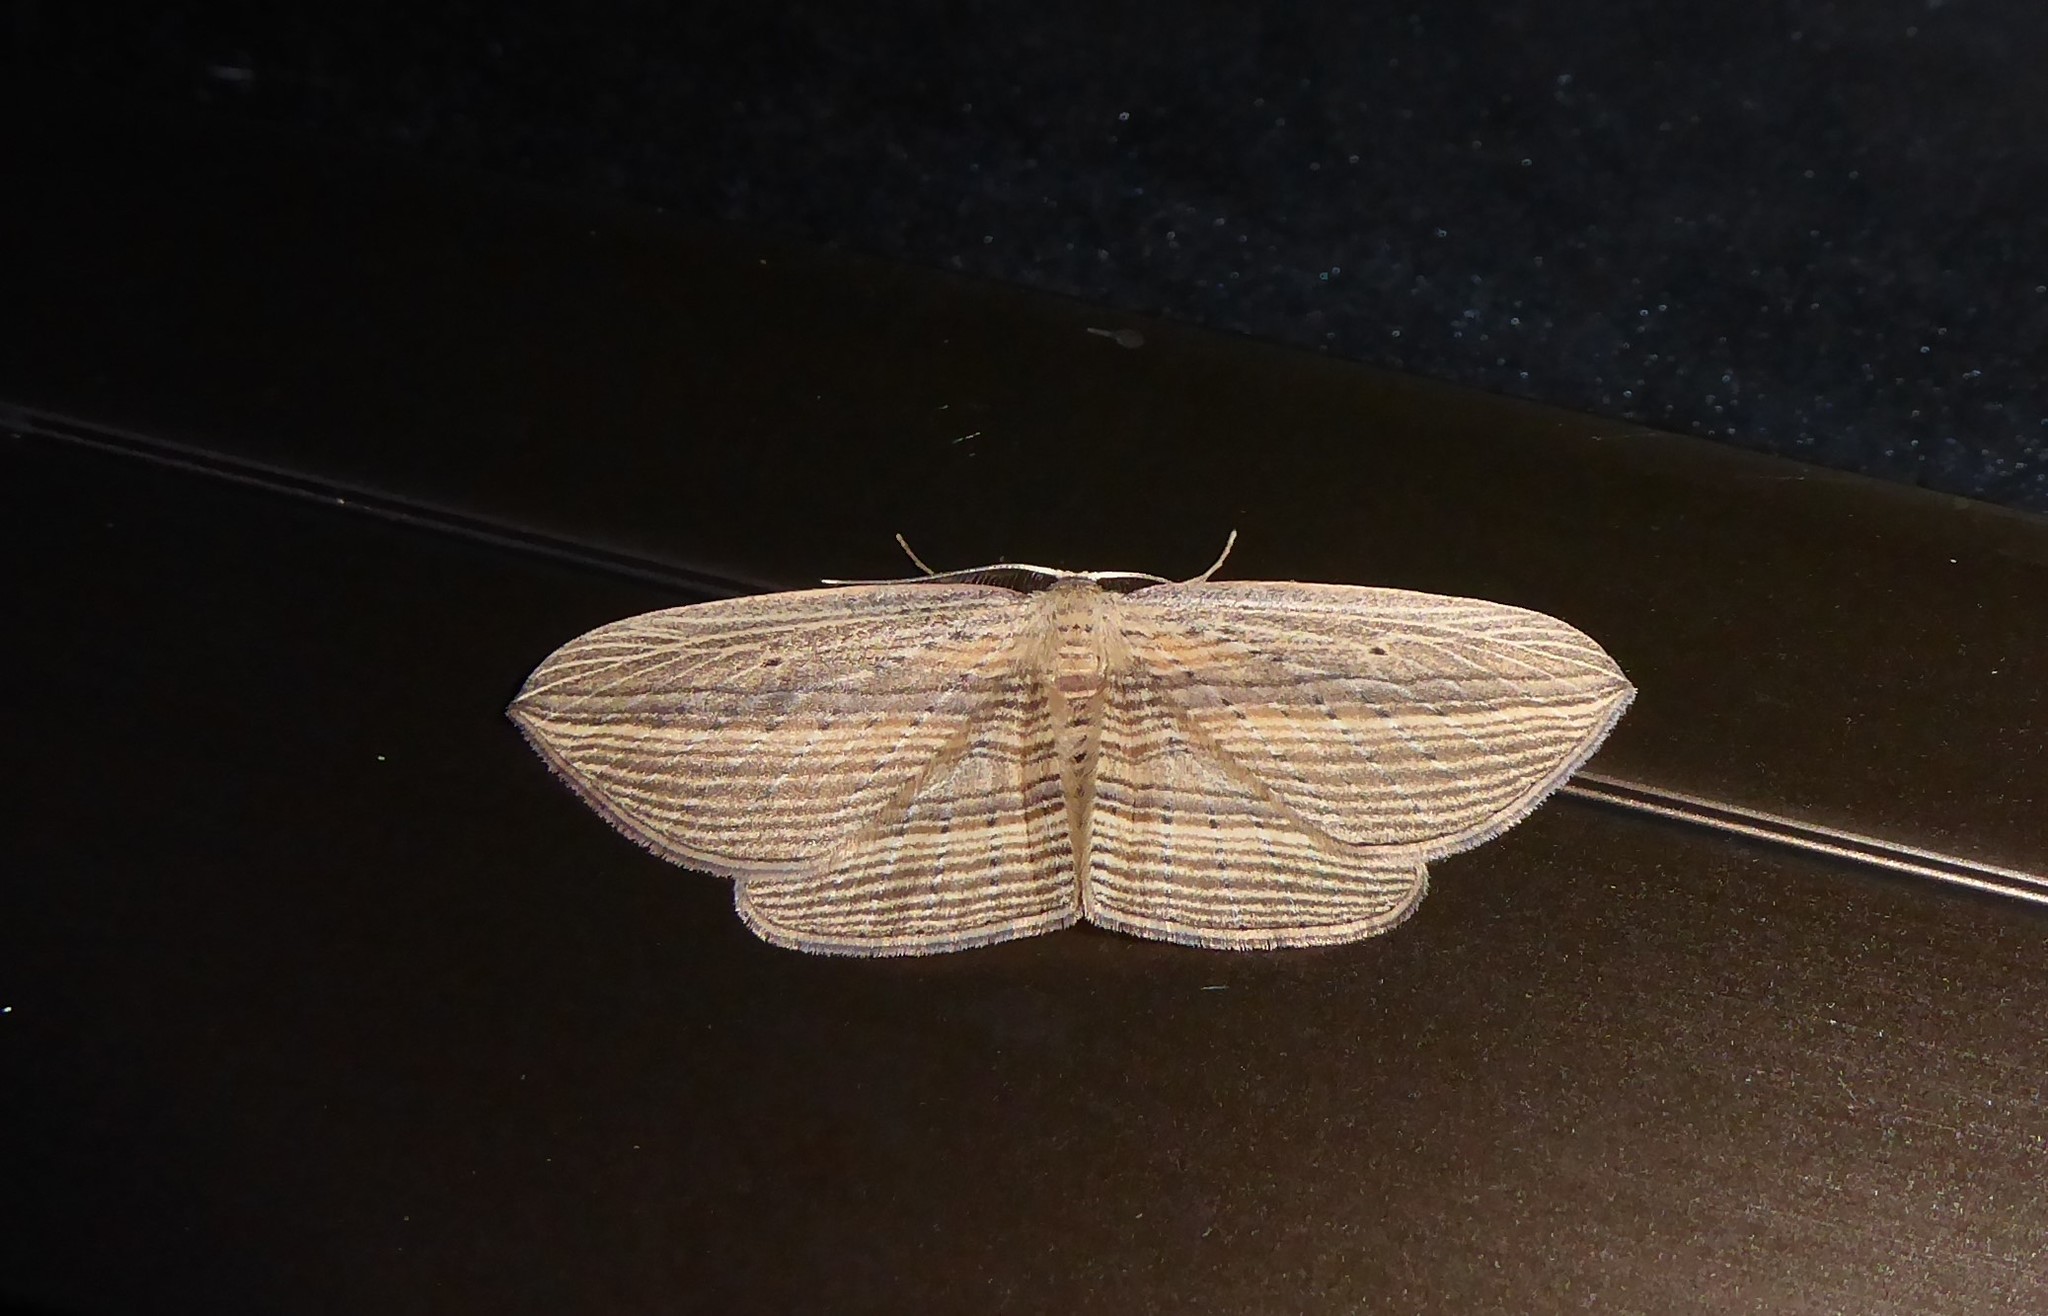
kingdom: Animalia
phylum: Arthropoda
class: Insecta
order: Lepidoptera
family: Geometridae
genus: Epiphryne
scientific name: Epiphryne verriculata
